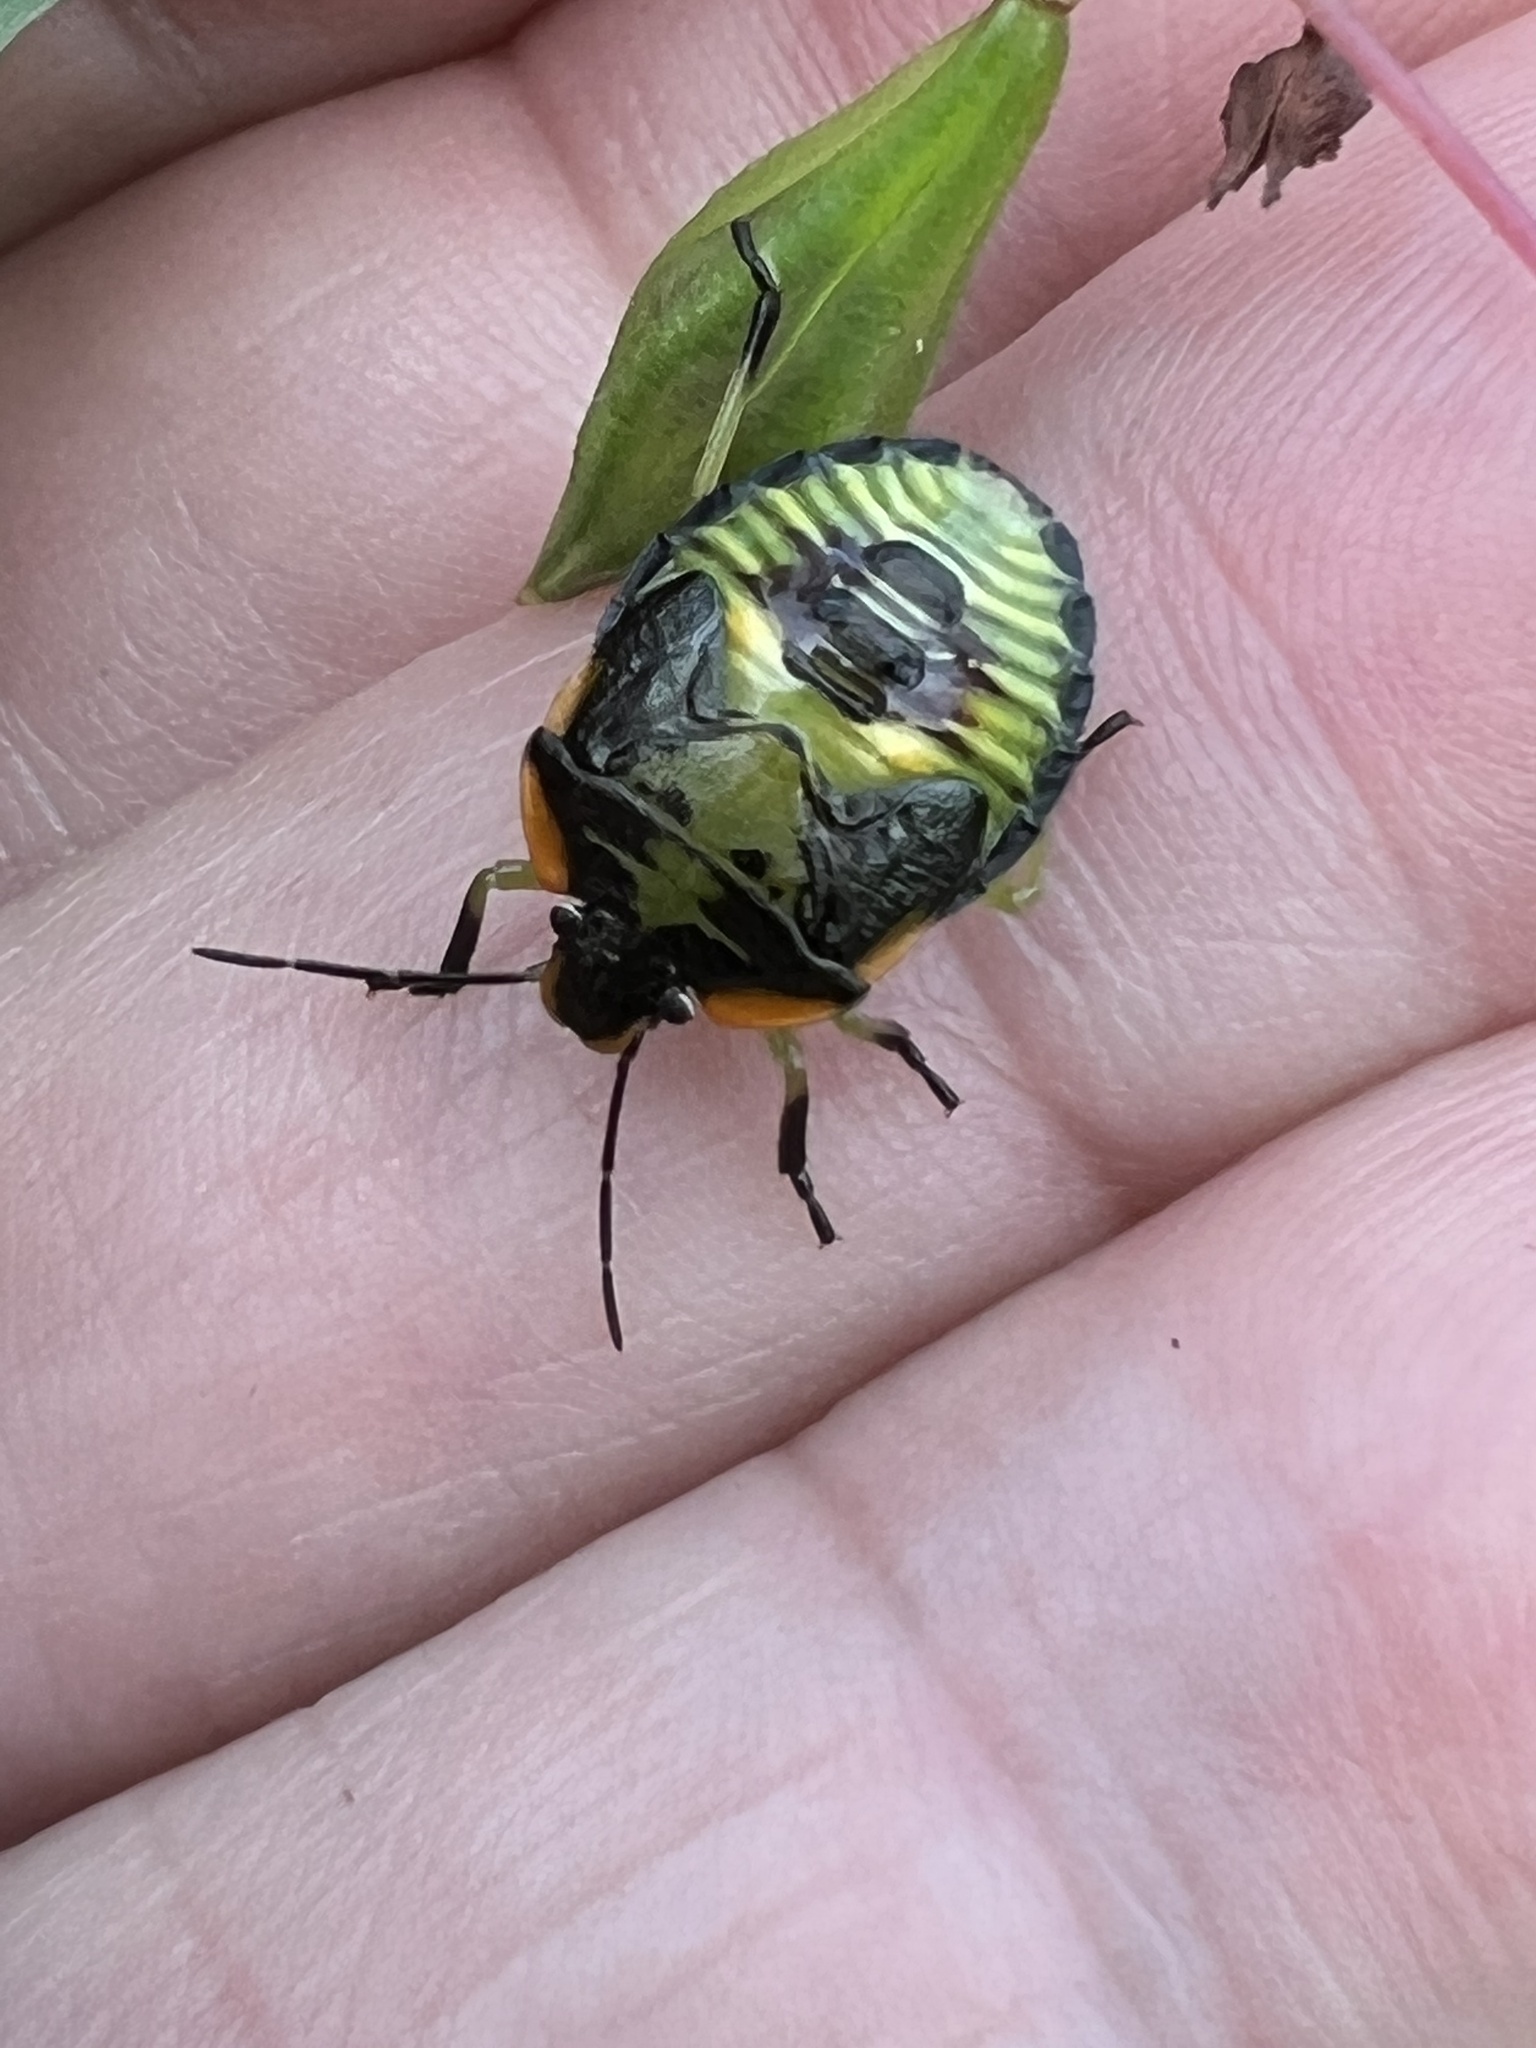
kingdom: Animalia
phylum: Arthropoda
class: Insecta
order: Hemiptera
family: Pentatomidae
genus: Chinavia
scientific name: Chinavia hilaris
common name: Green stink bug
